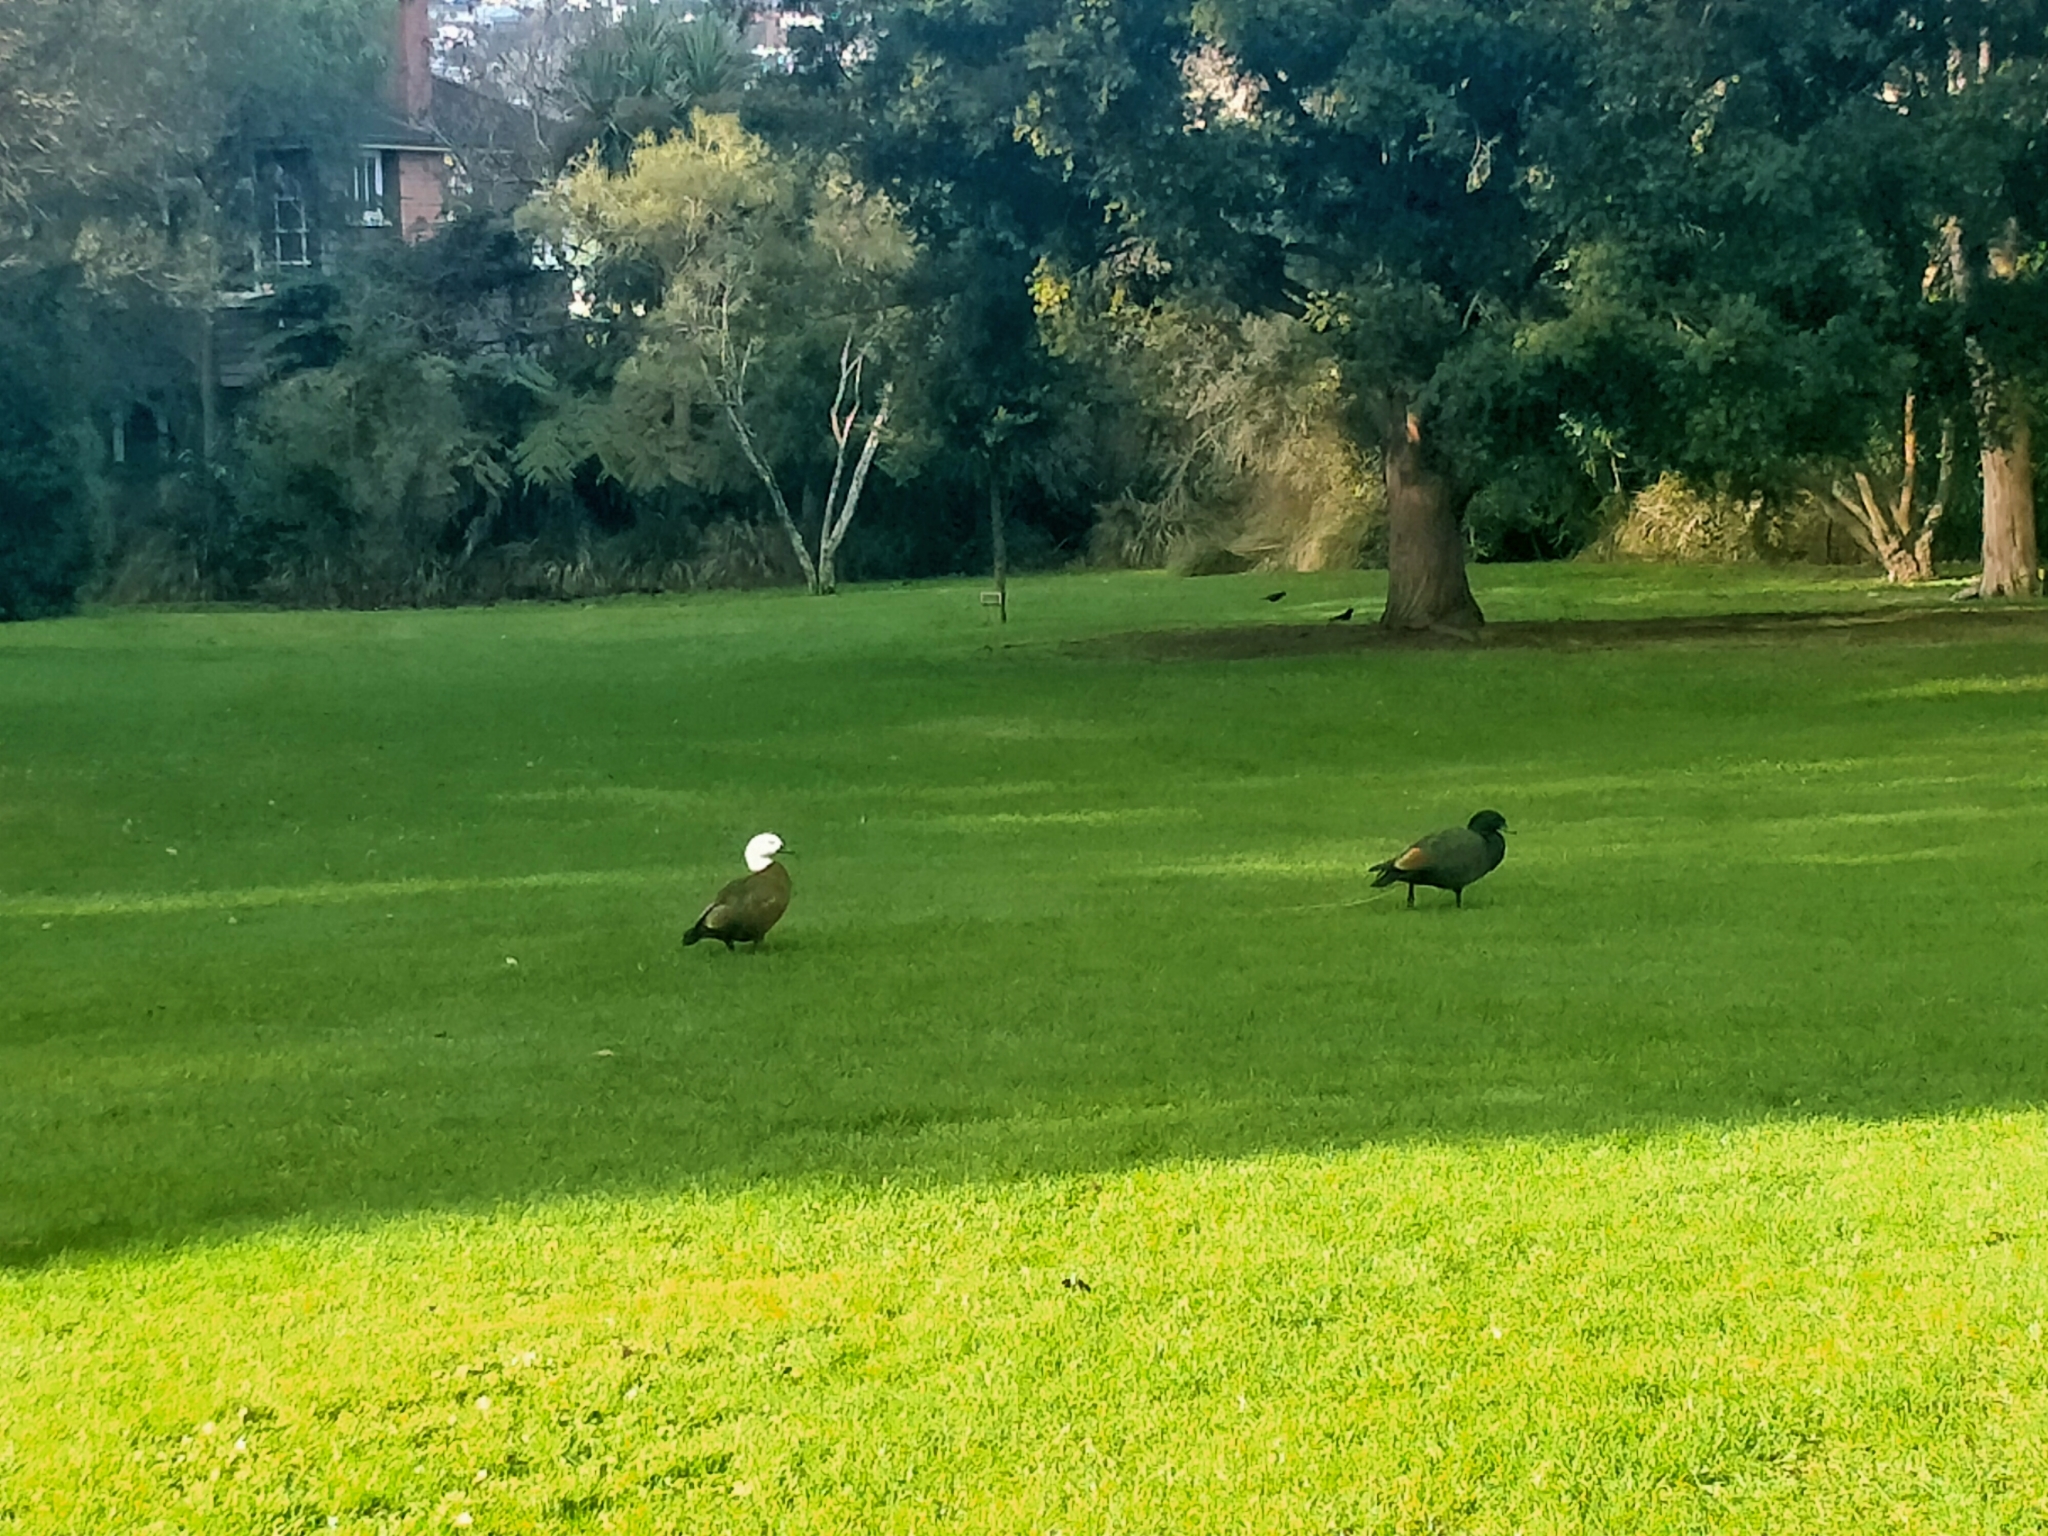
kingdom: Animalia
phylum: Chordata
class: Aves
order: Anseriformes
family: Anatidae
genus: Tadorna
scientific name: Tadorna variegata
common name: Paradise shelduck
